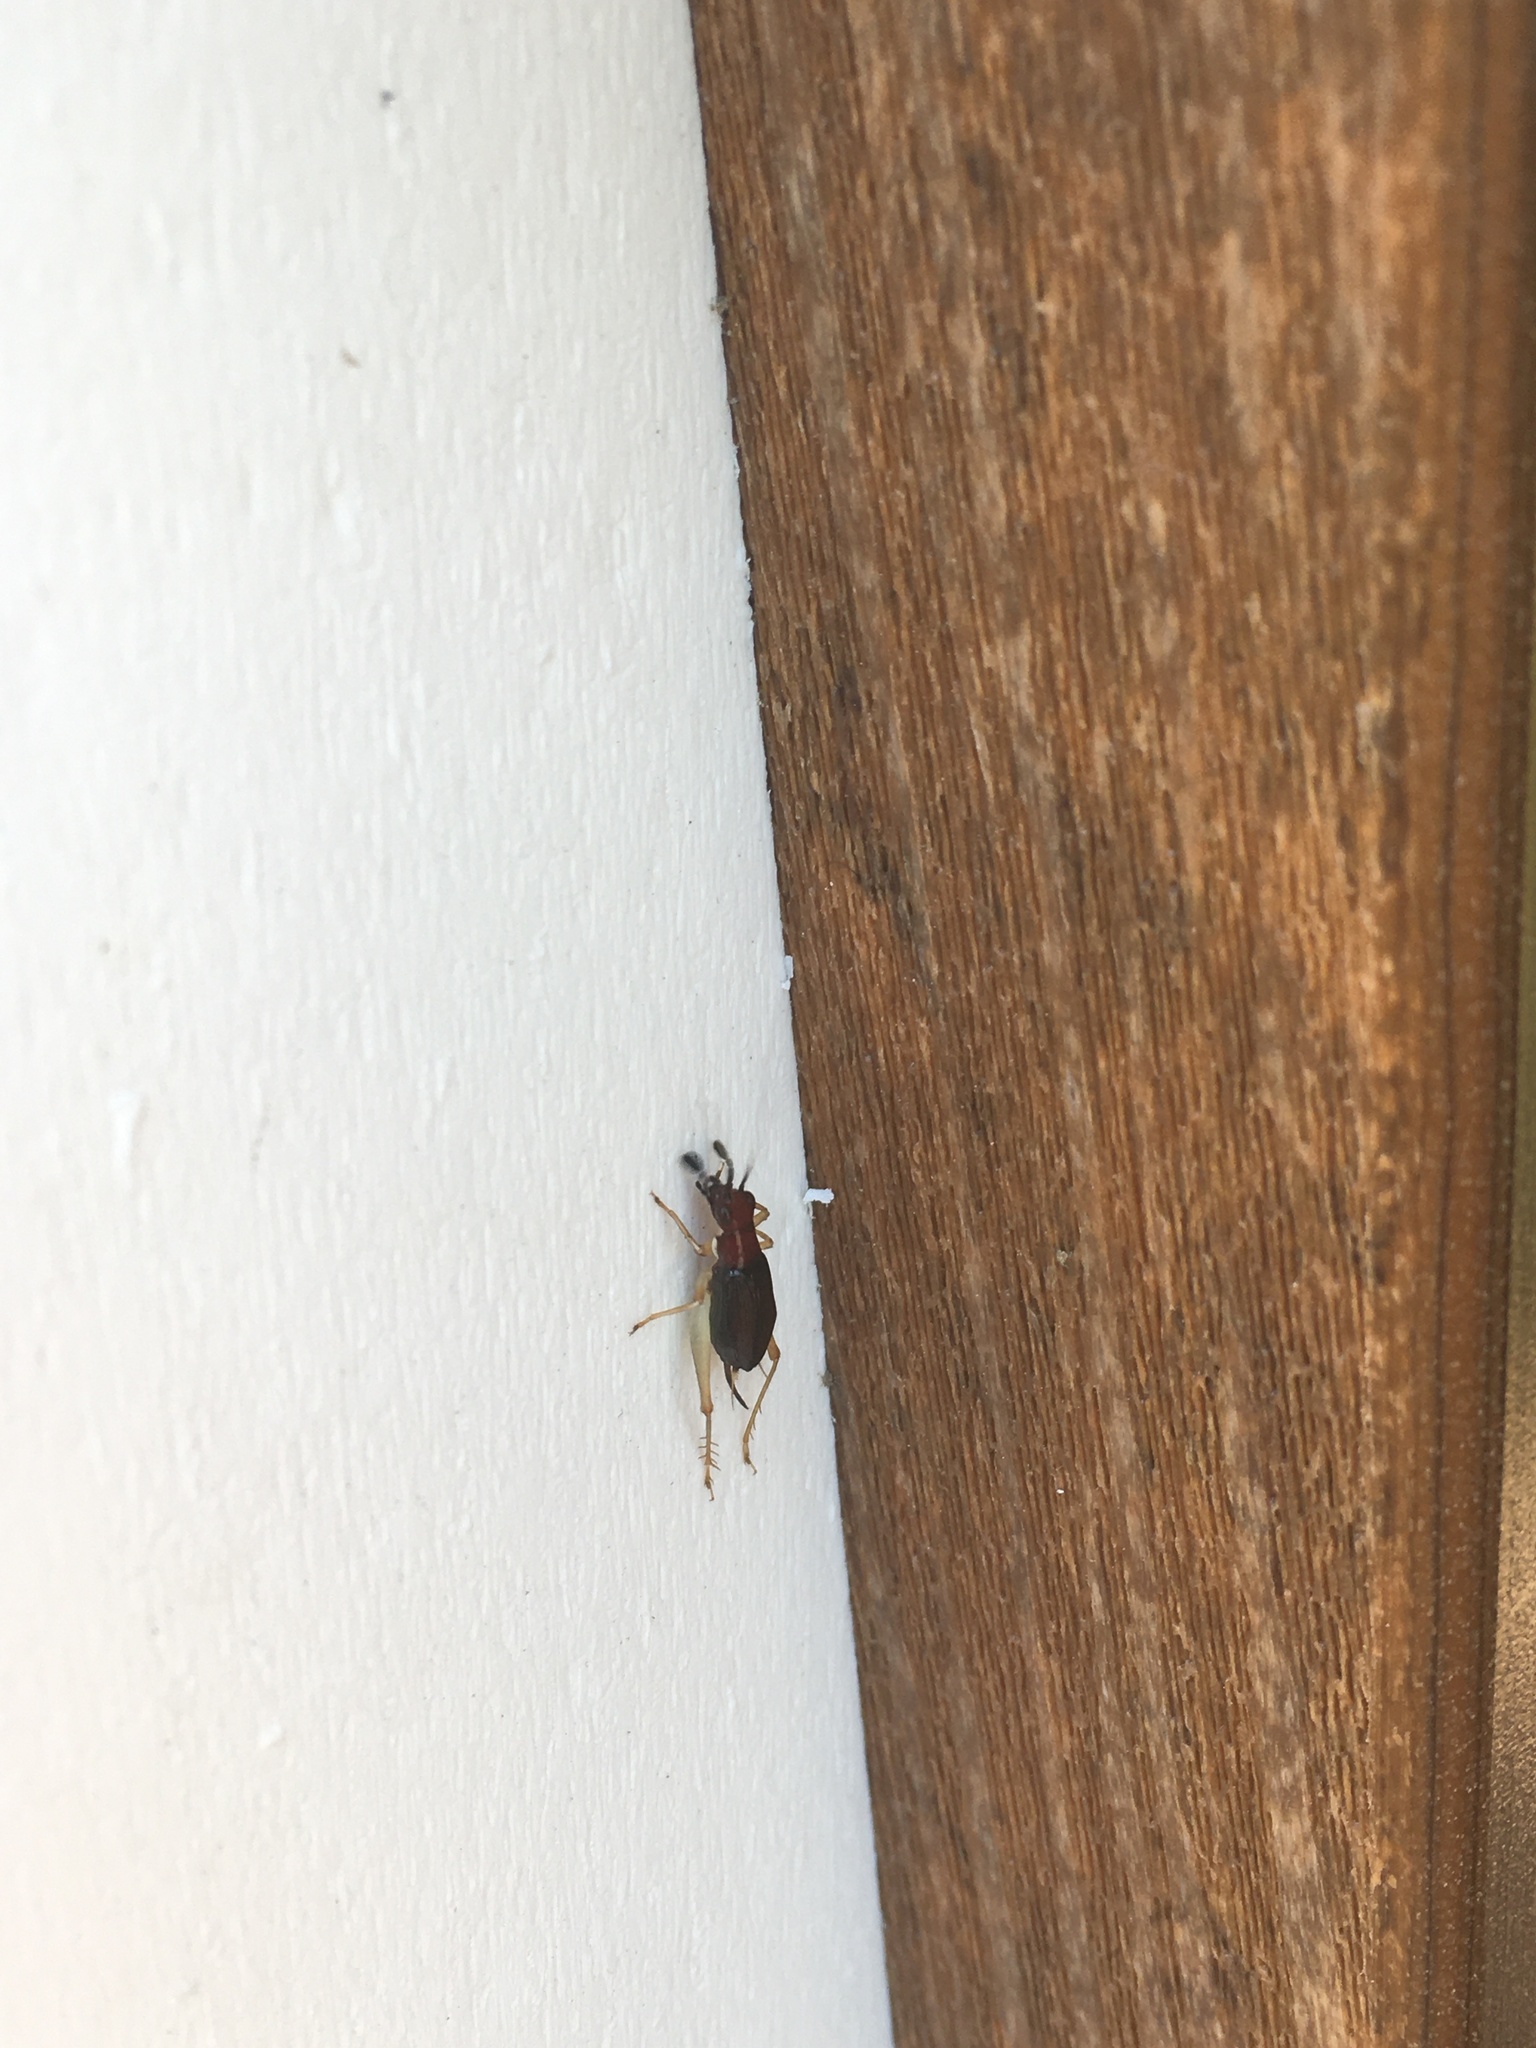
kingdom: Animalia
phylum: Arthropoda
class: Insecta
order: Orthoptera
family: Trigonidiidae
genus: Phyllopalpus
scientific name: Phyllopalpus pulchellus
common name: Handsome trig
